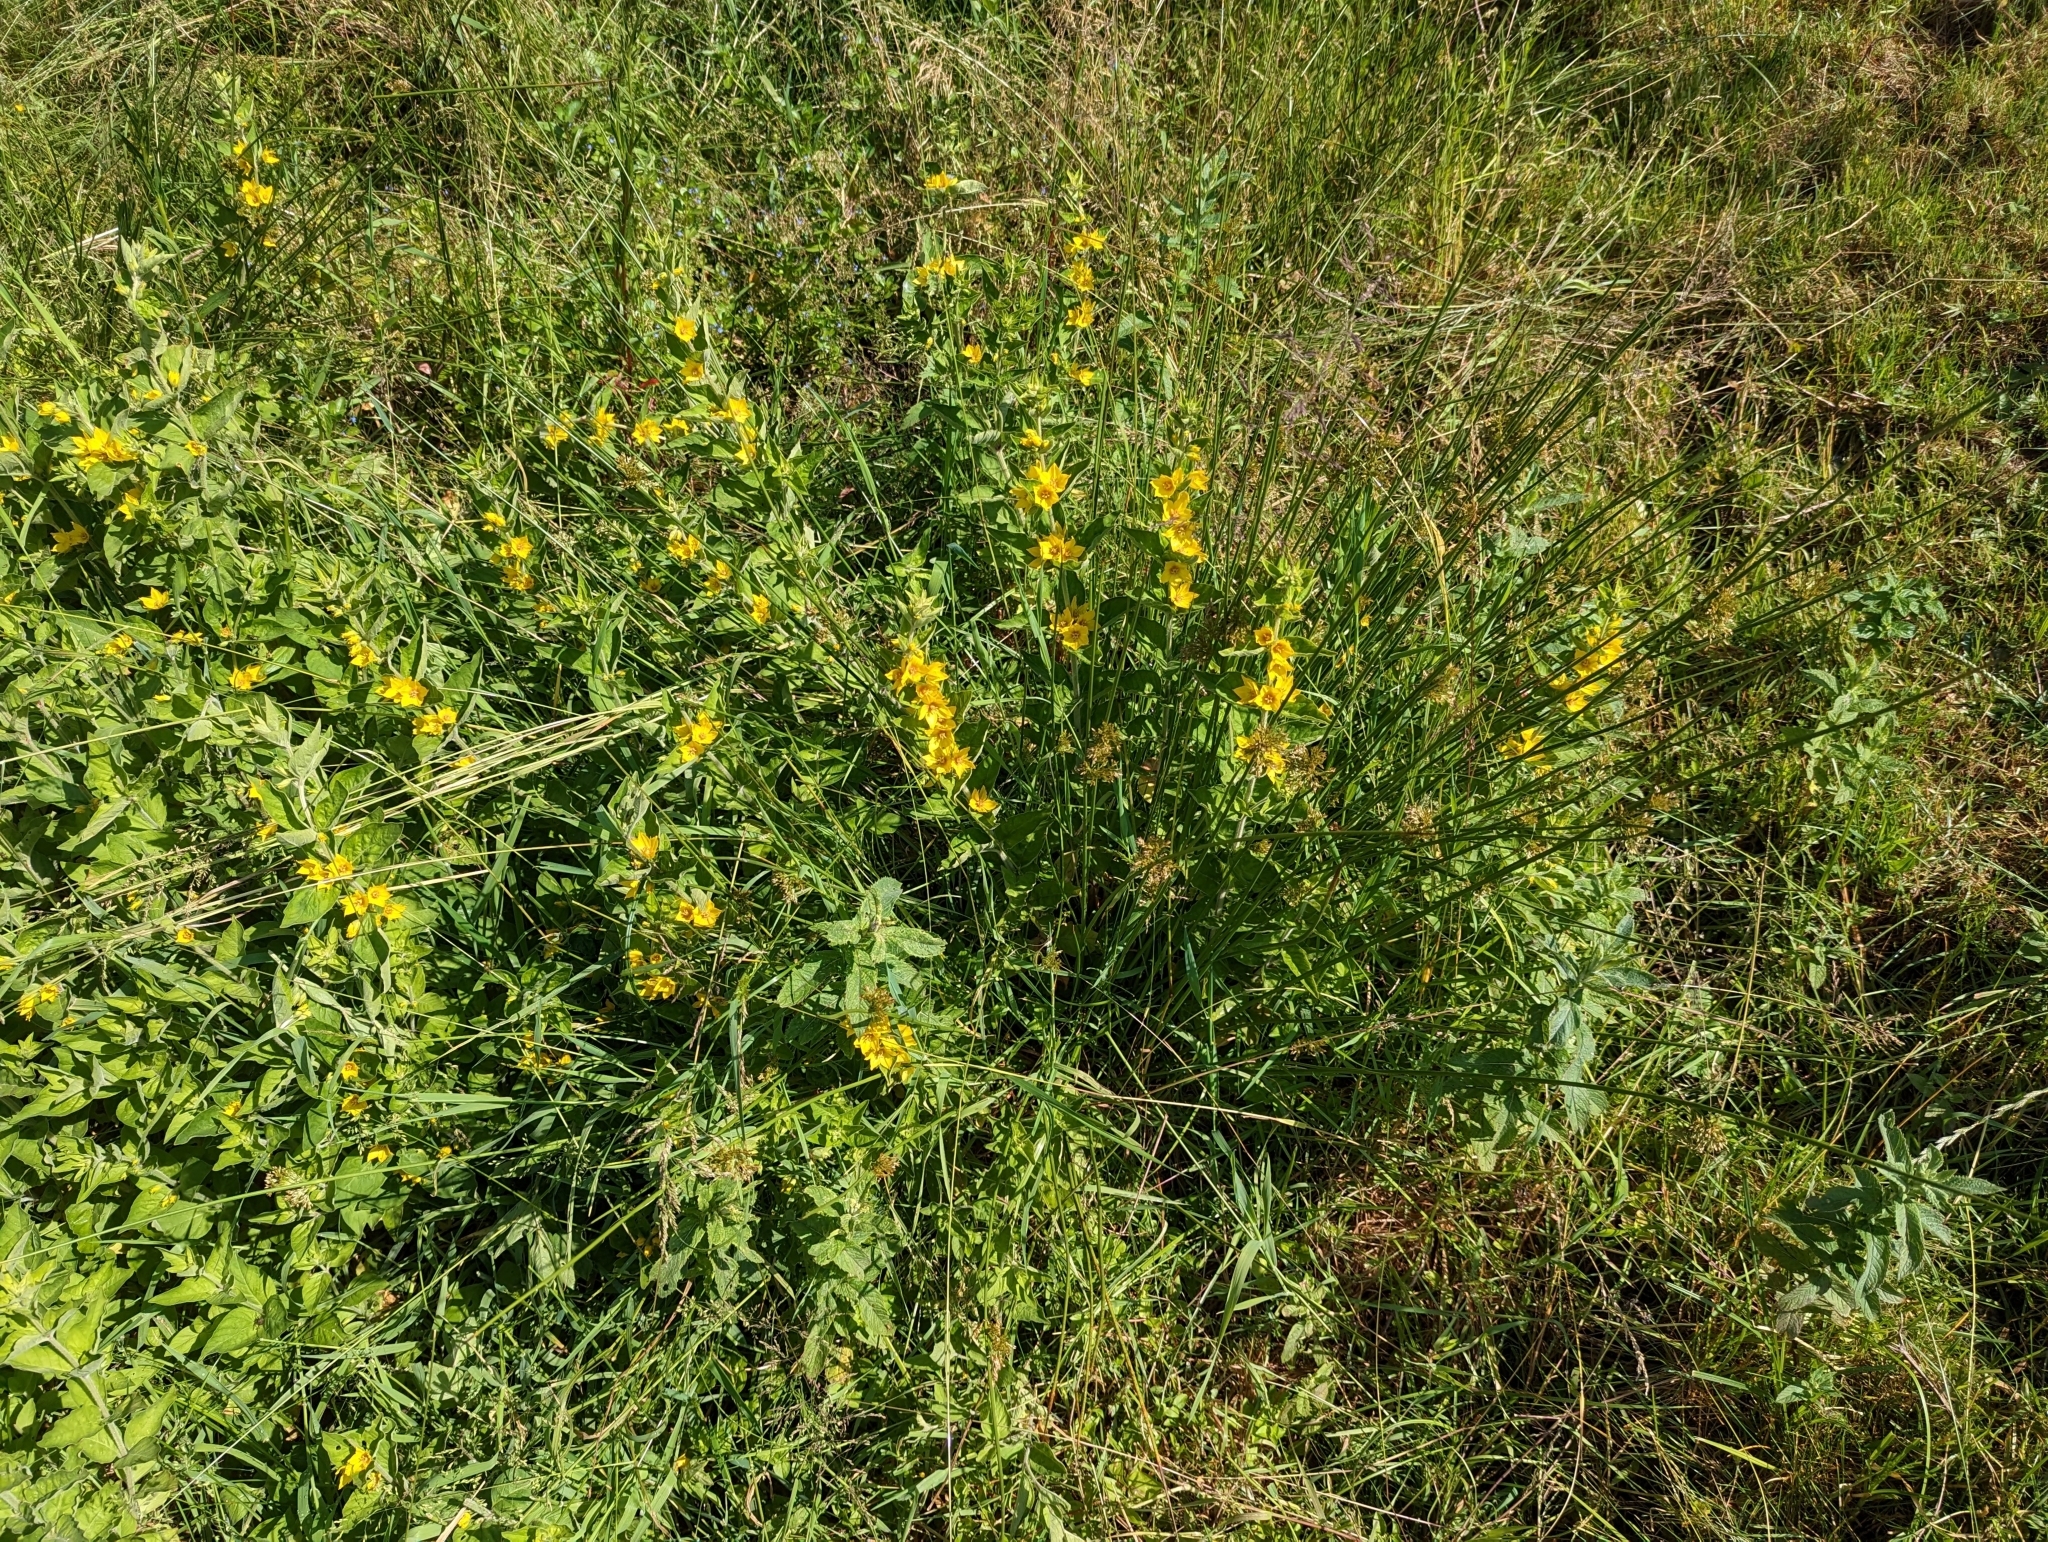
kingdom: Plantae
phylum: Tracheophyta
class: Magnoliopsida
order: Ericales
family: Primulaceae
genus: Lysimachia
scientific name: Lysimachia punctata
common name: Dotted loosestrife
